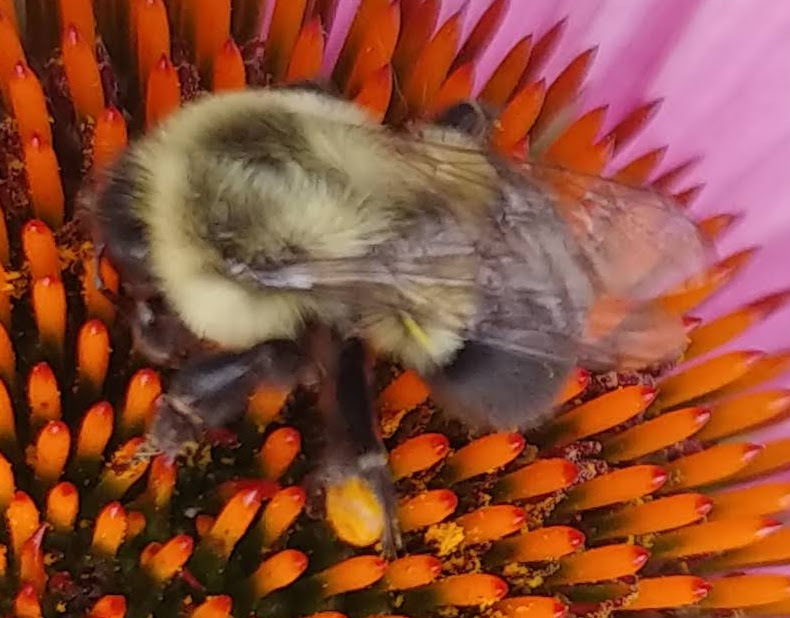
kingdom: Animalia
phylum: Arthropoda
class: Insecta
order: Hymenoptera
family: Apidae
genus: Bombus
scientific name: Bombus impatiens
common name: Common eastern bumble bee
